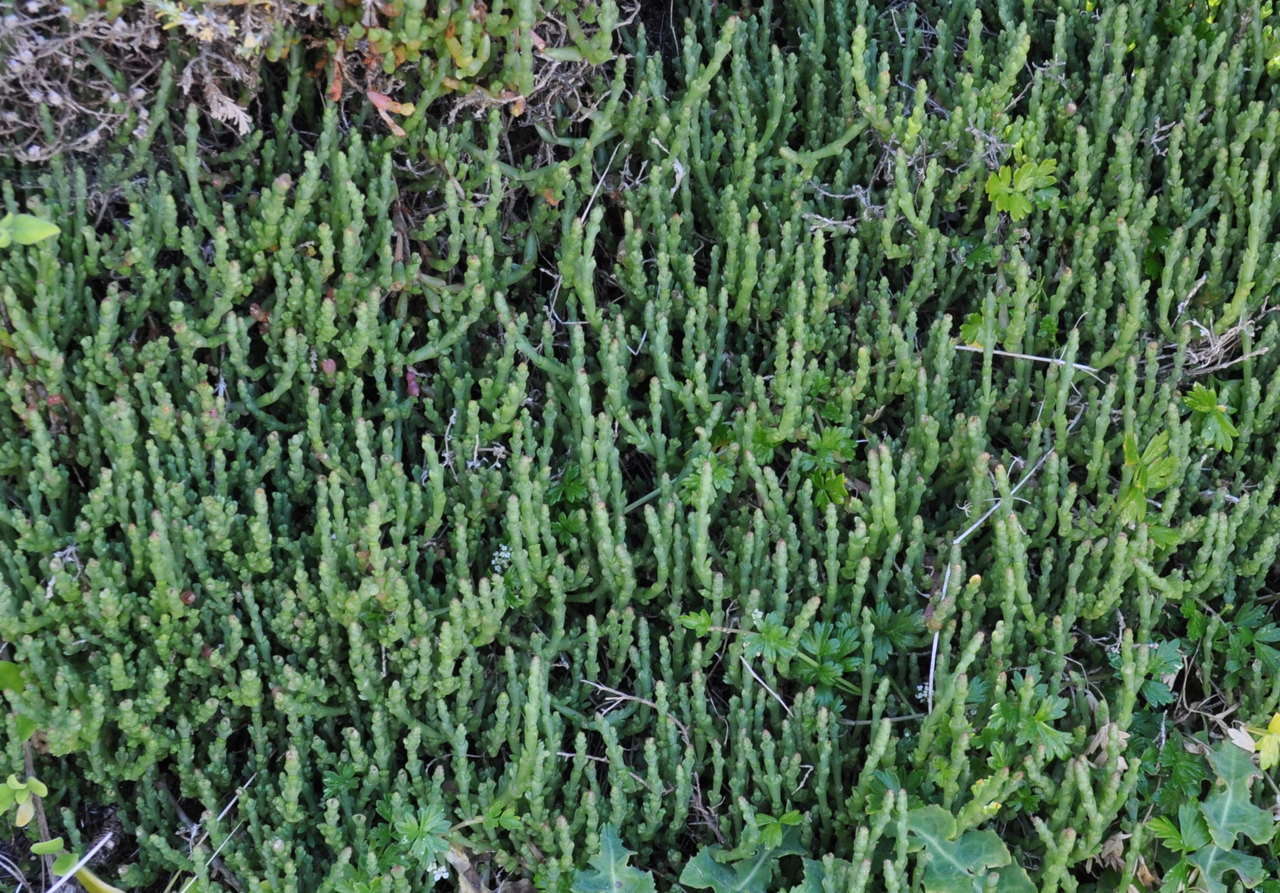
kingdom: Plantae
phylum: Tracheophyta
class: Magnoliopsida
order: Caryophyllales
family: Amaranthaceae
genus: Salicornia
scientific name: Salicornia quinqueflora
